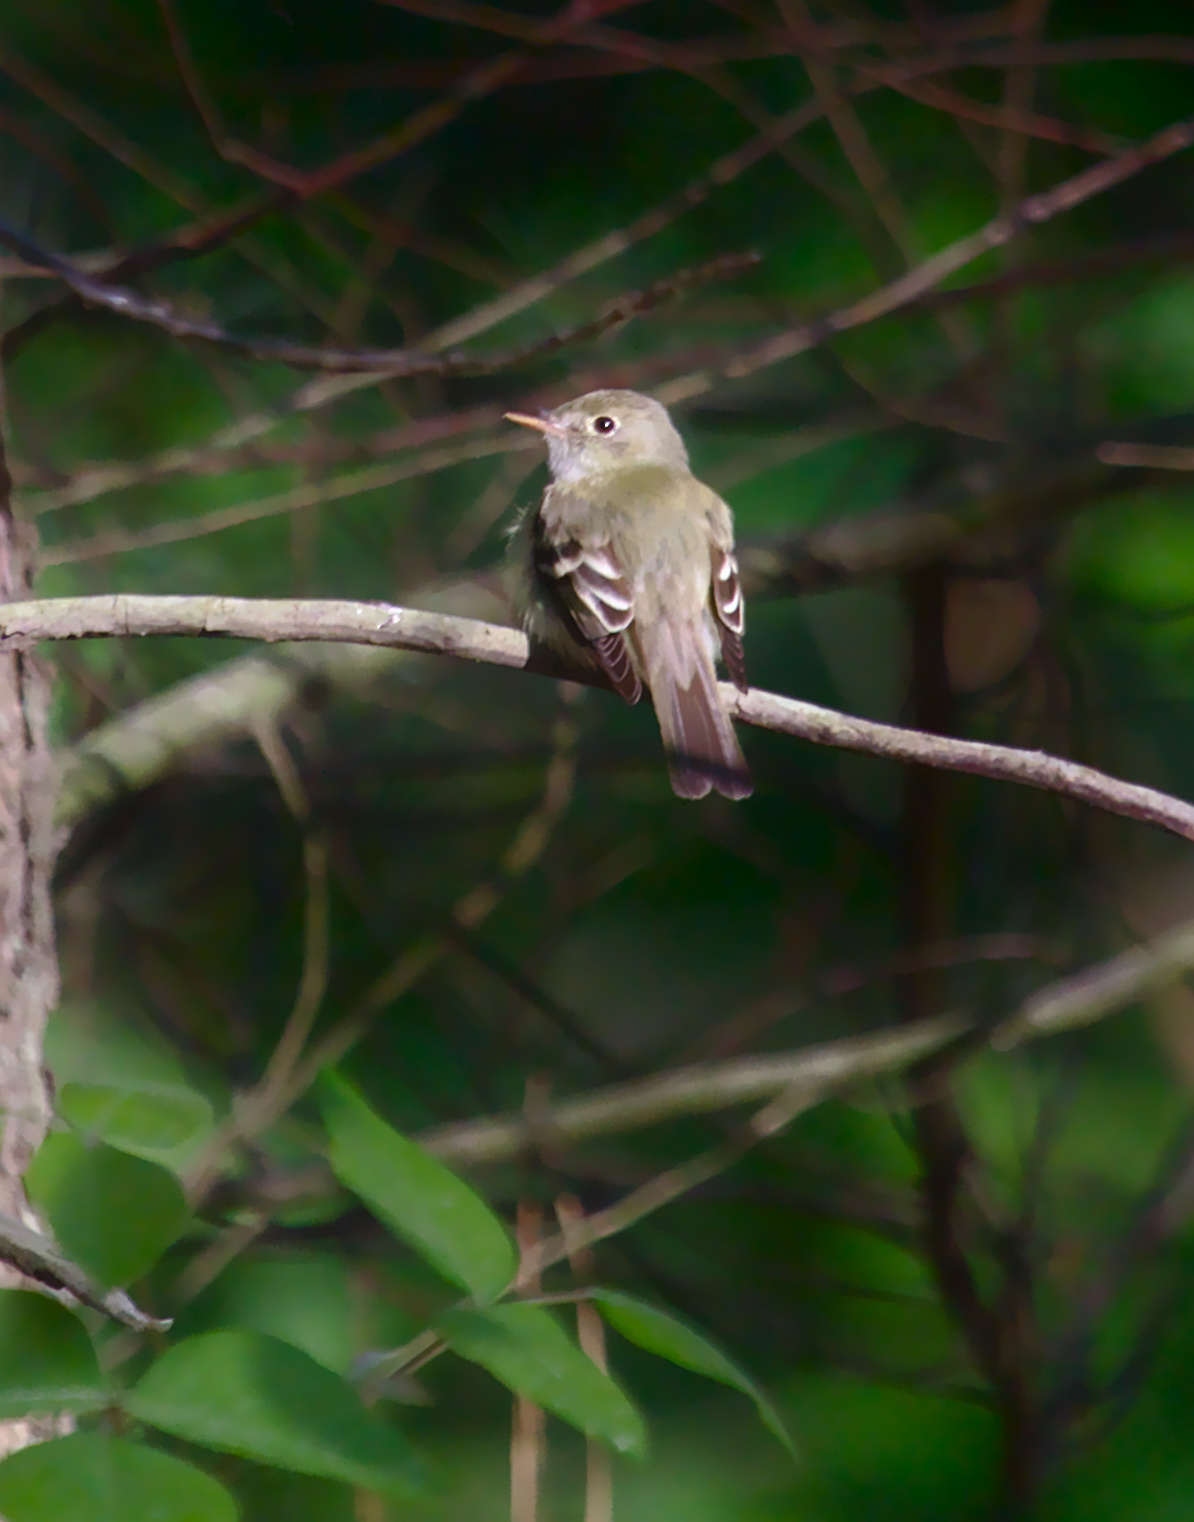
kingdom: Animalia
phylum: Chordata
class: Aves
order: Passeriformes
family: Tyrannidae
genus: Empidonax
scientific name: Empidonax virescens
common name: Acadian flycatcher
